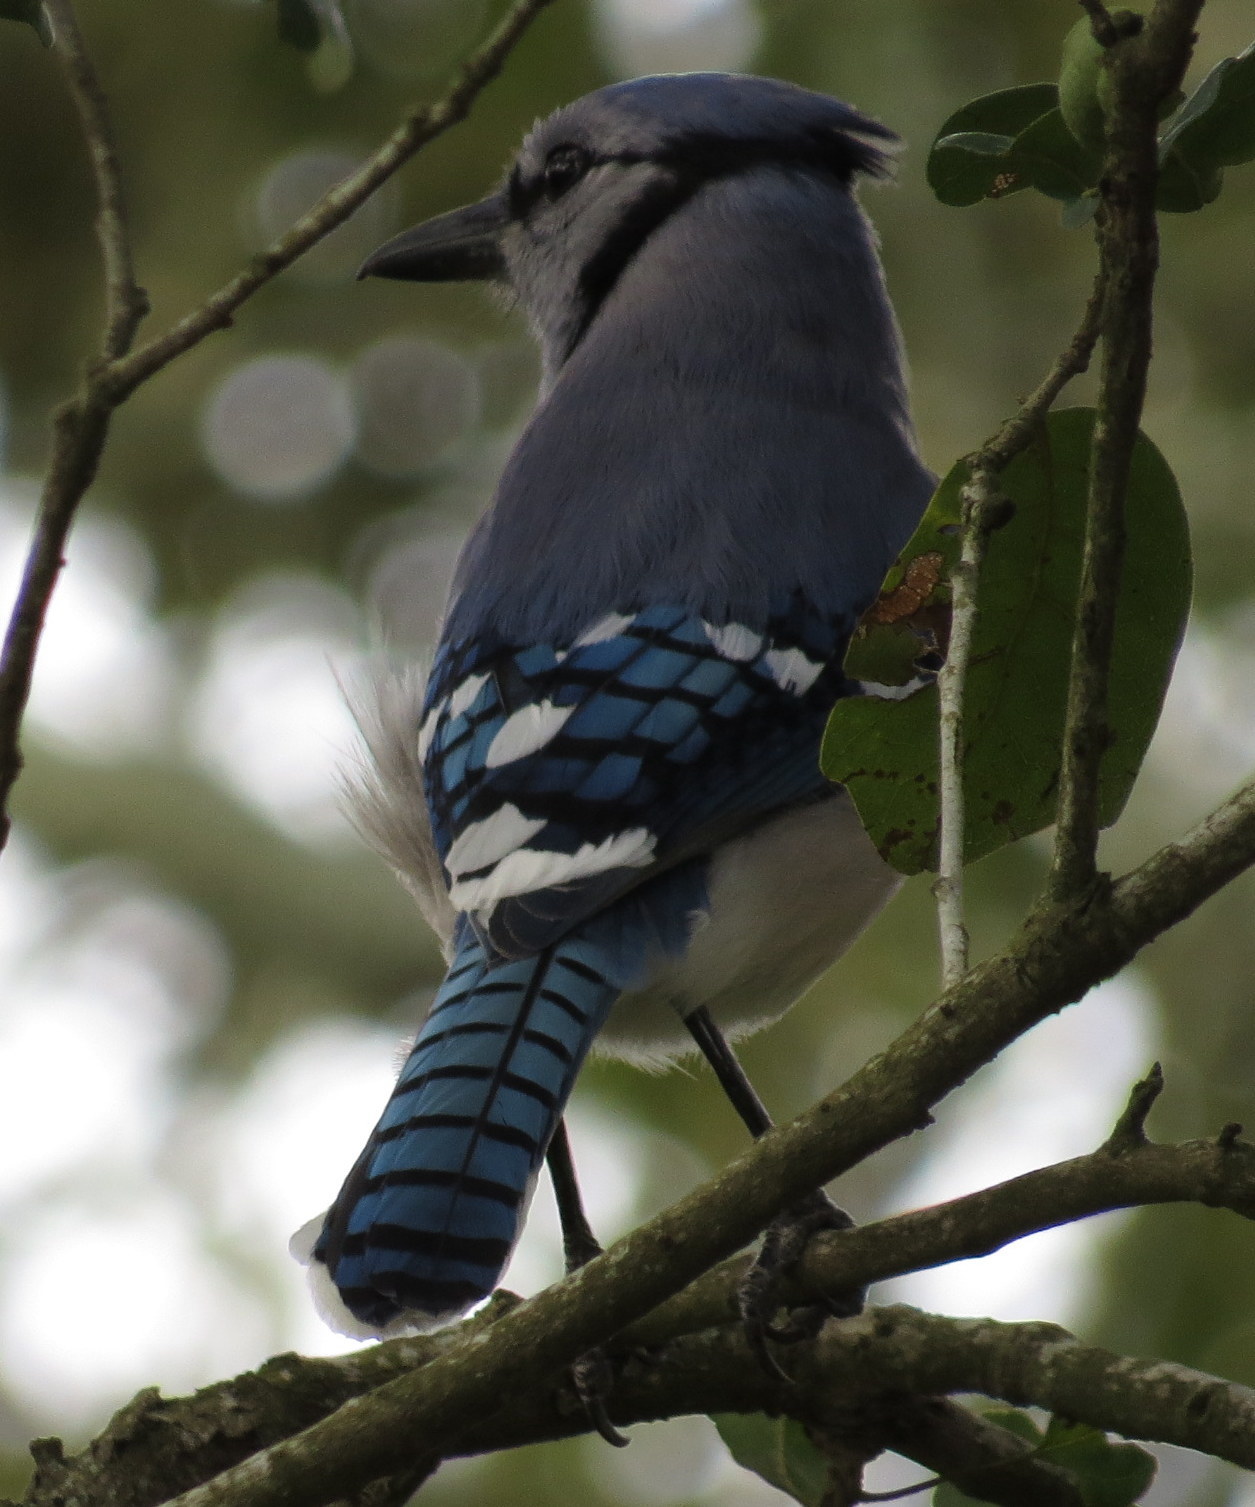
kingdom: Animalia
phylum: Chordata
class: Aves
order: Passeriformes
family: Corvidae
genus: Cyanocitta
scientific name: Cyanocitta cristata
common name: Blue jay
